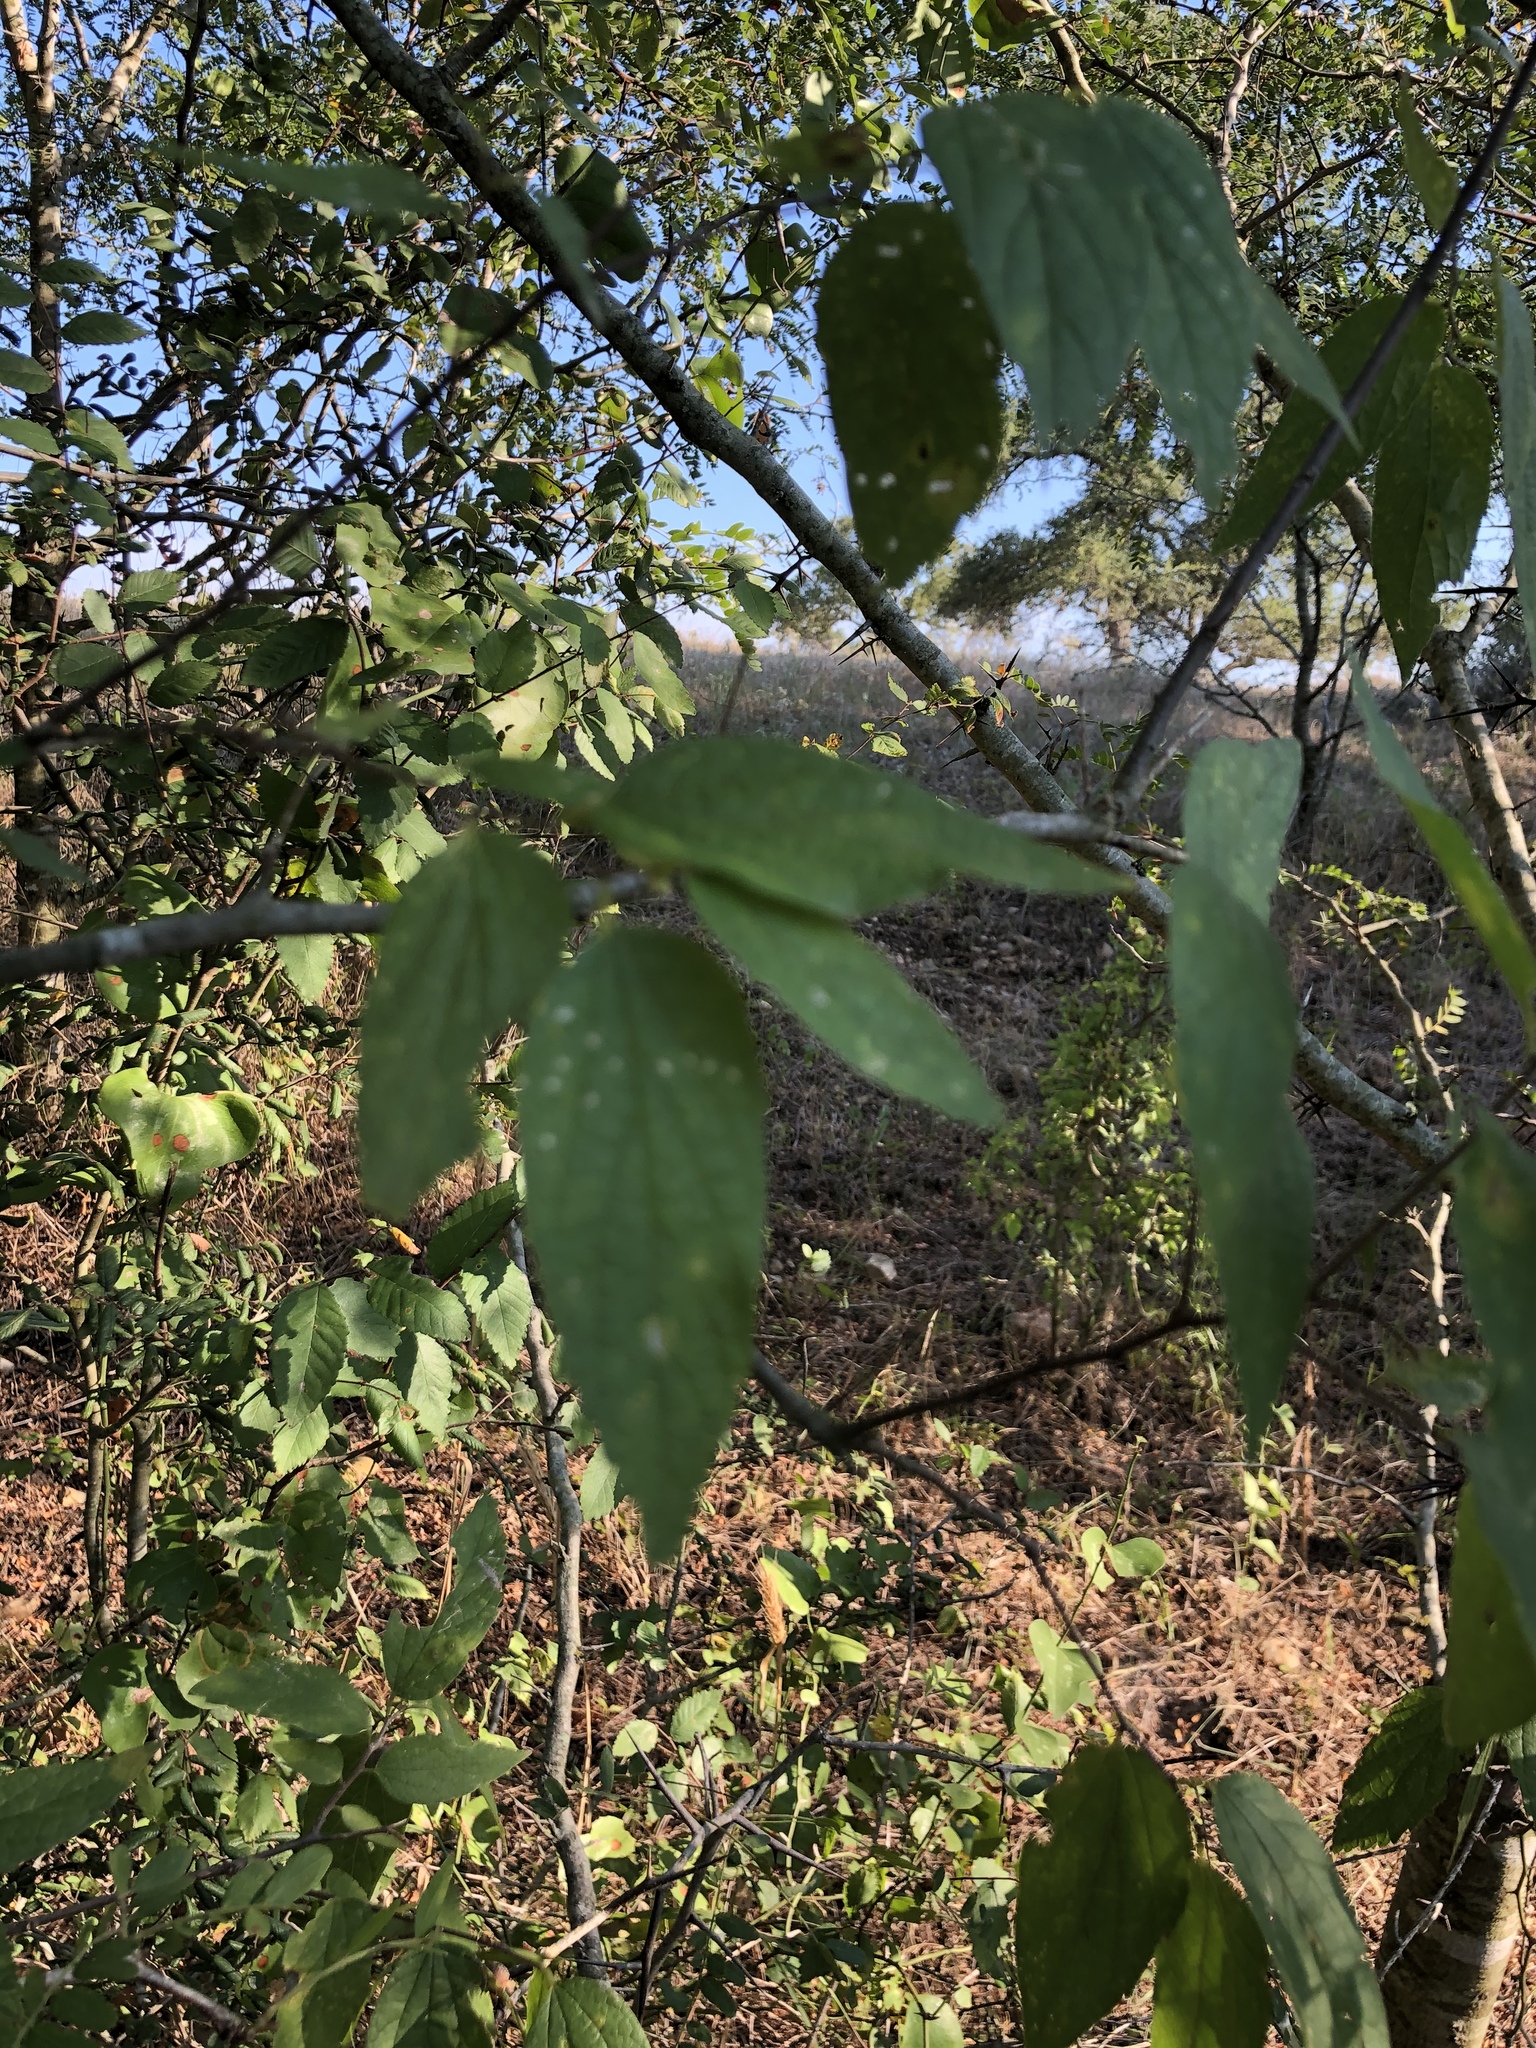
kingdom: Plantae
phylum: Tracheophyta
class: Magnoliopsida
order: Rosales
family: Cannabaceae
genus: Celtis
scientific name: Celtis laevigata
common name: Sugarberry
